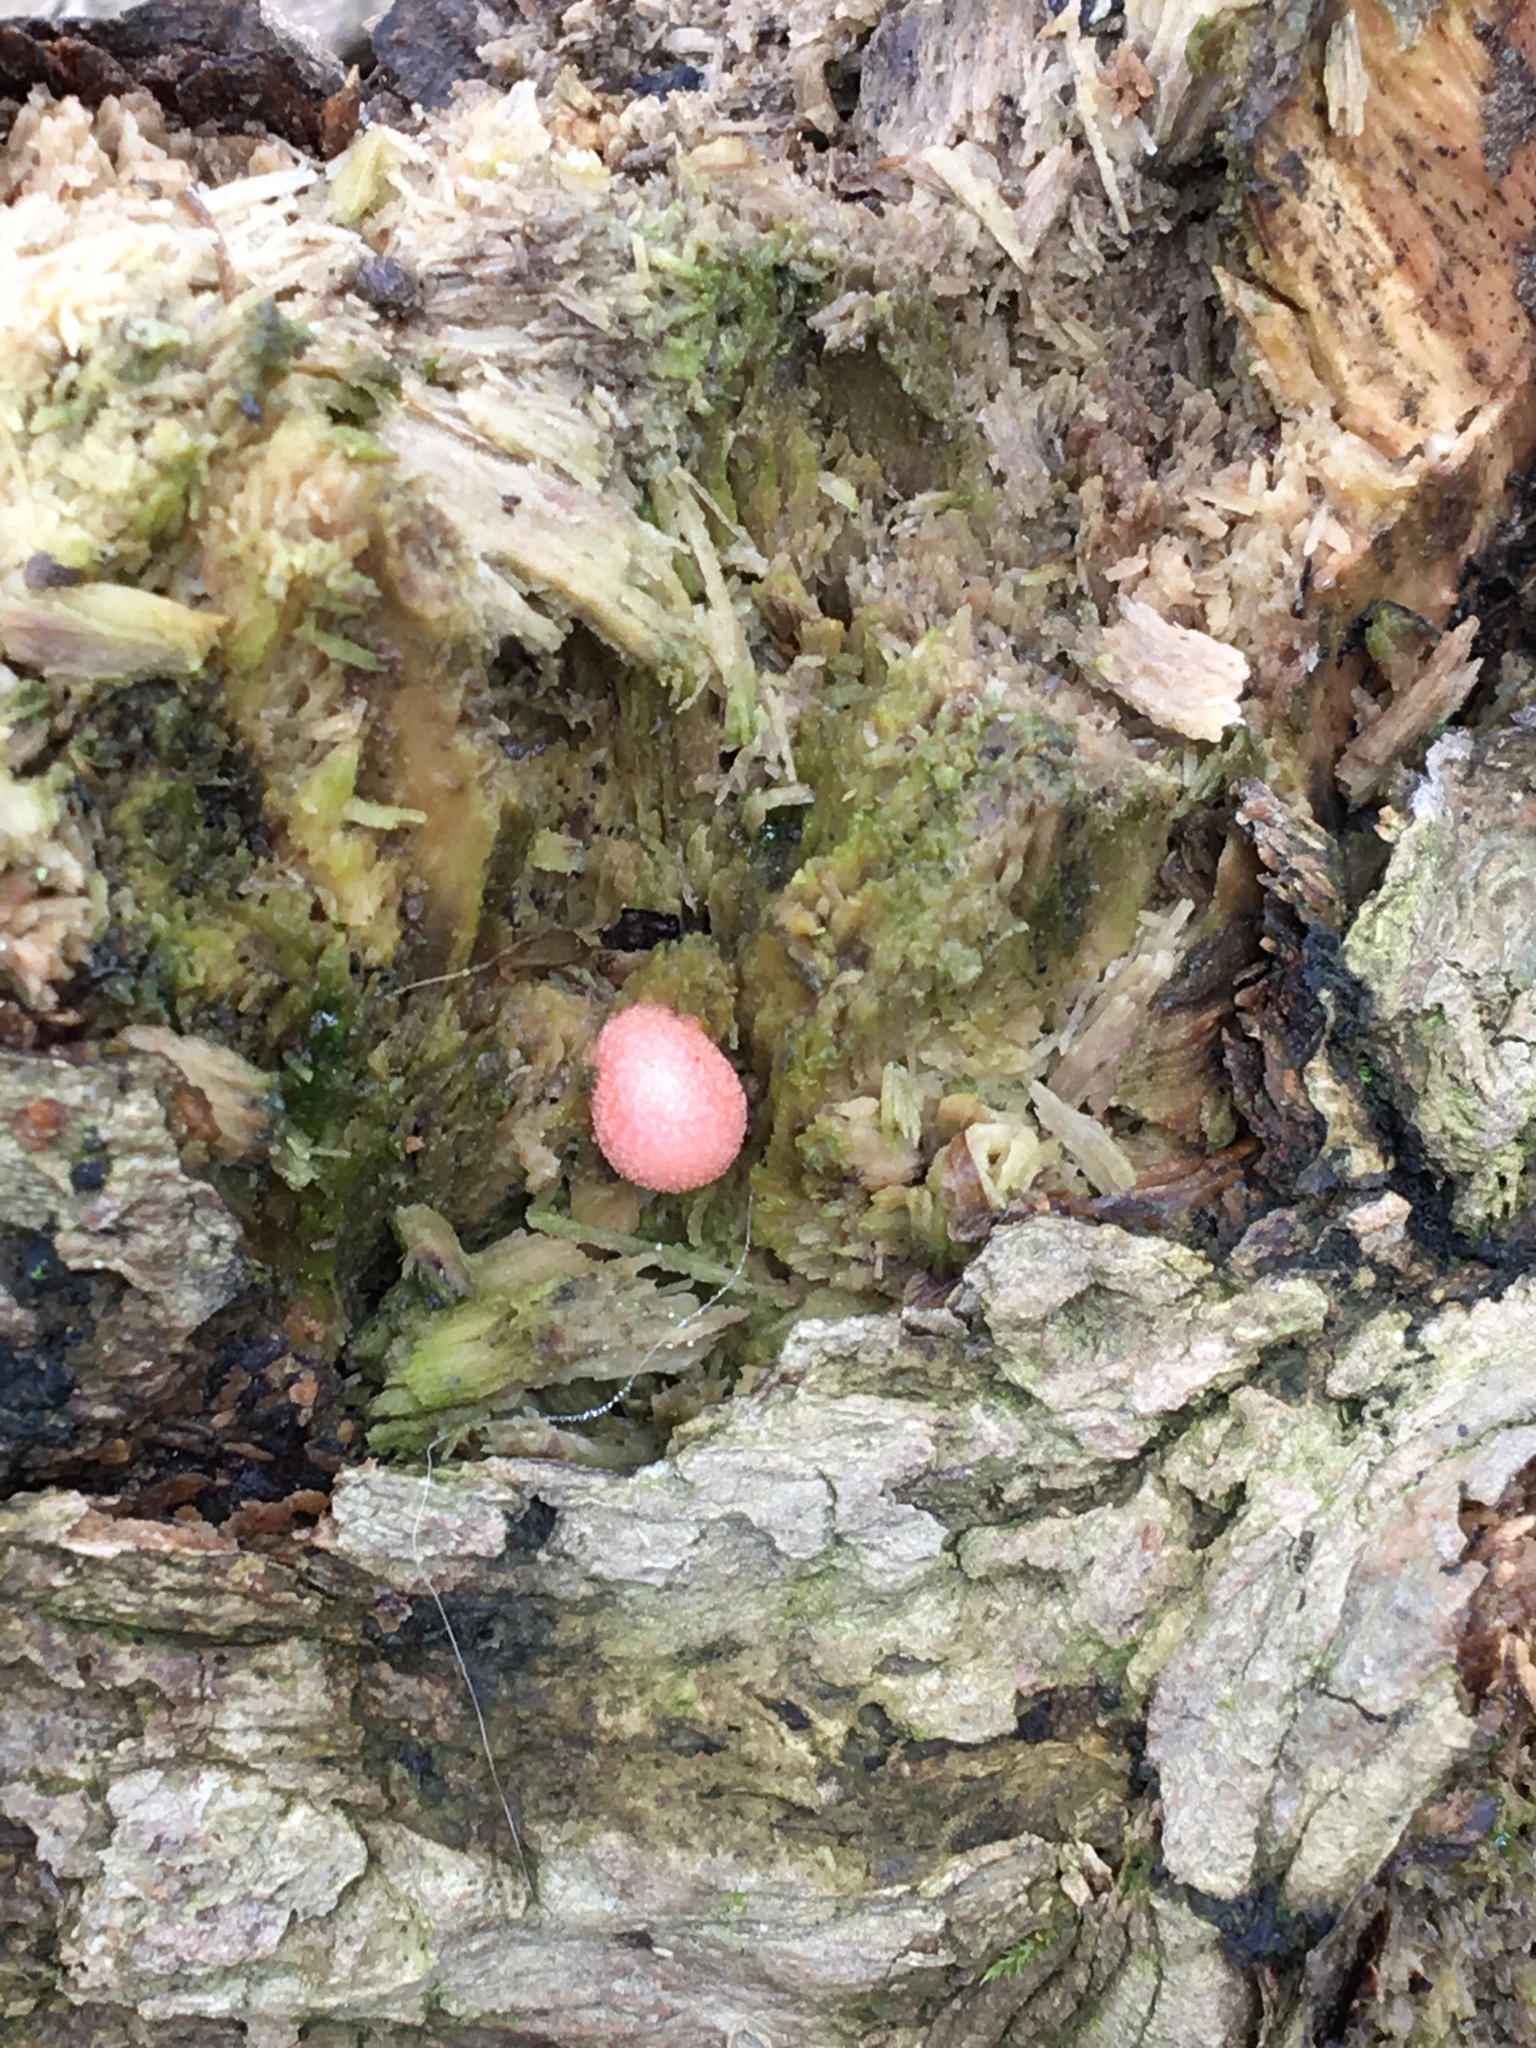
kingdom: Protozoa
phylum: Mycetozoa
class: Myxomycetes
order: Cribrariales
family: Tubiferaceae
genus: Lycogala
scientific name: Lycogala epidendrum
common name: Wolf's milk
